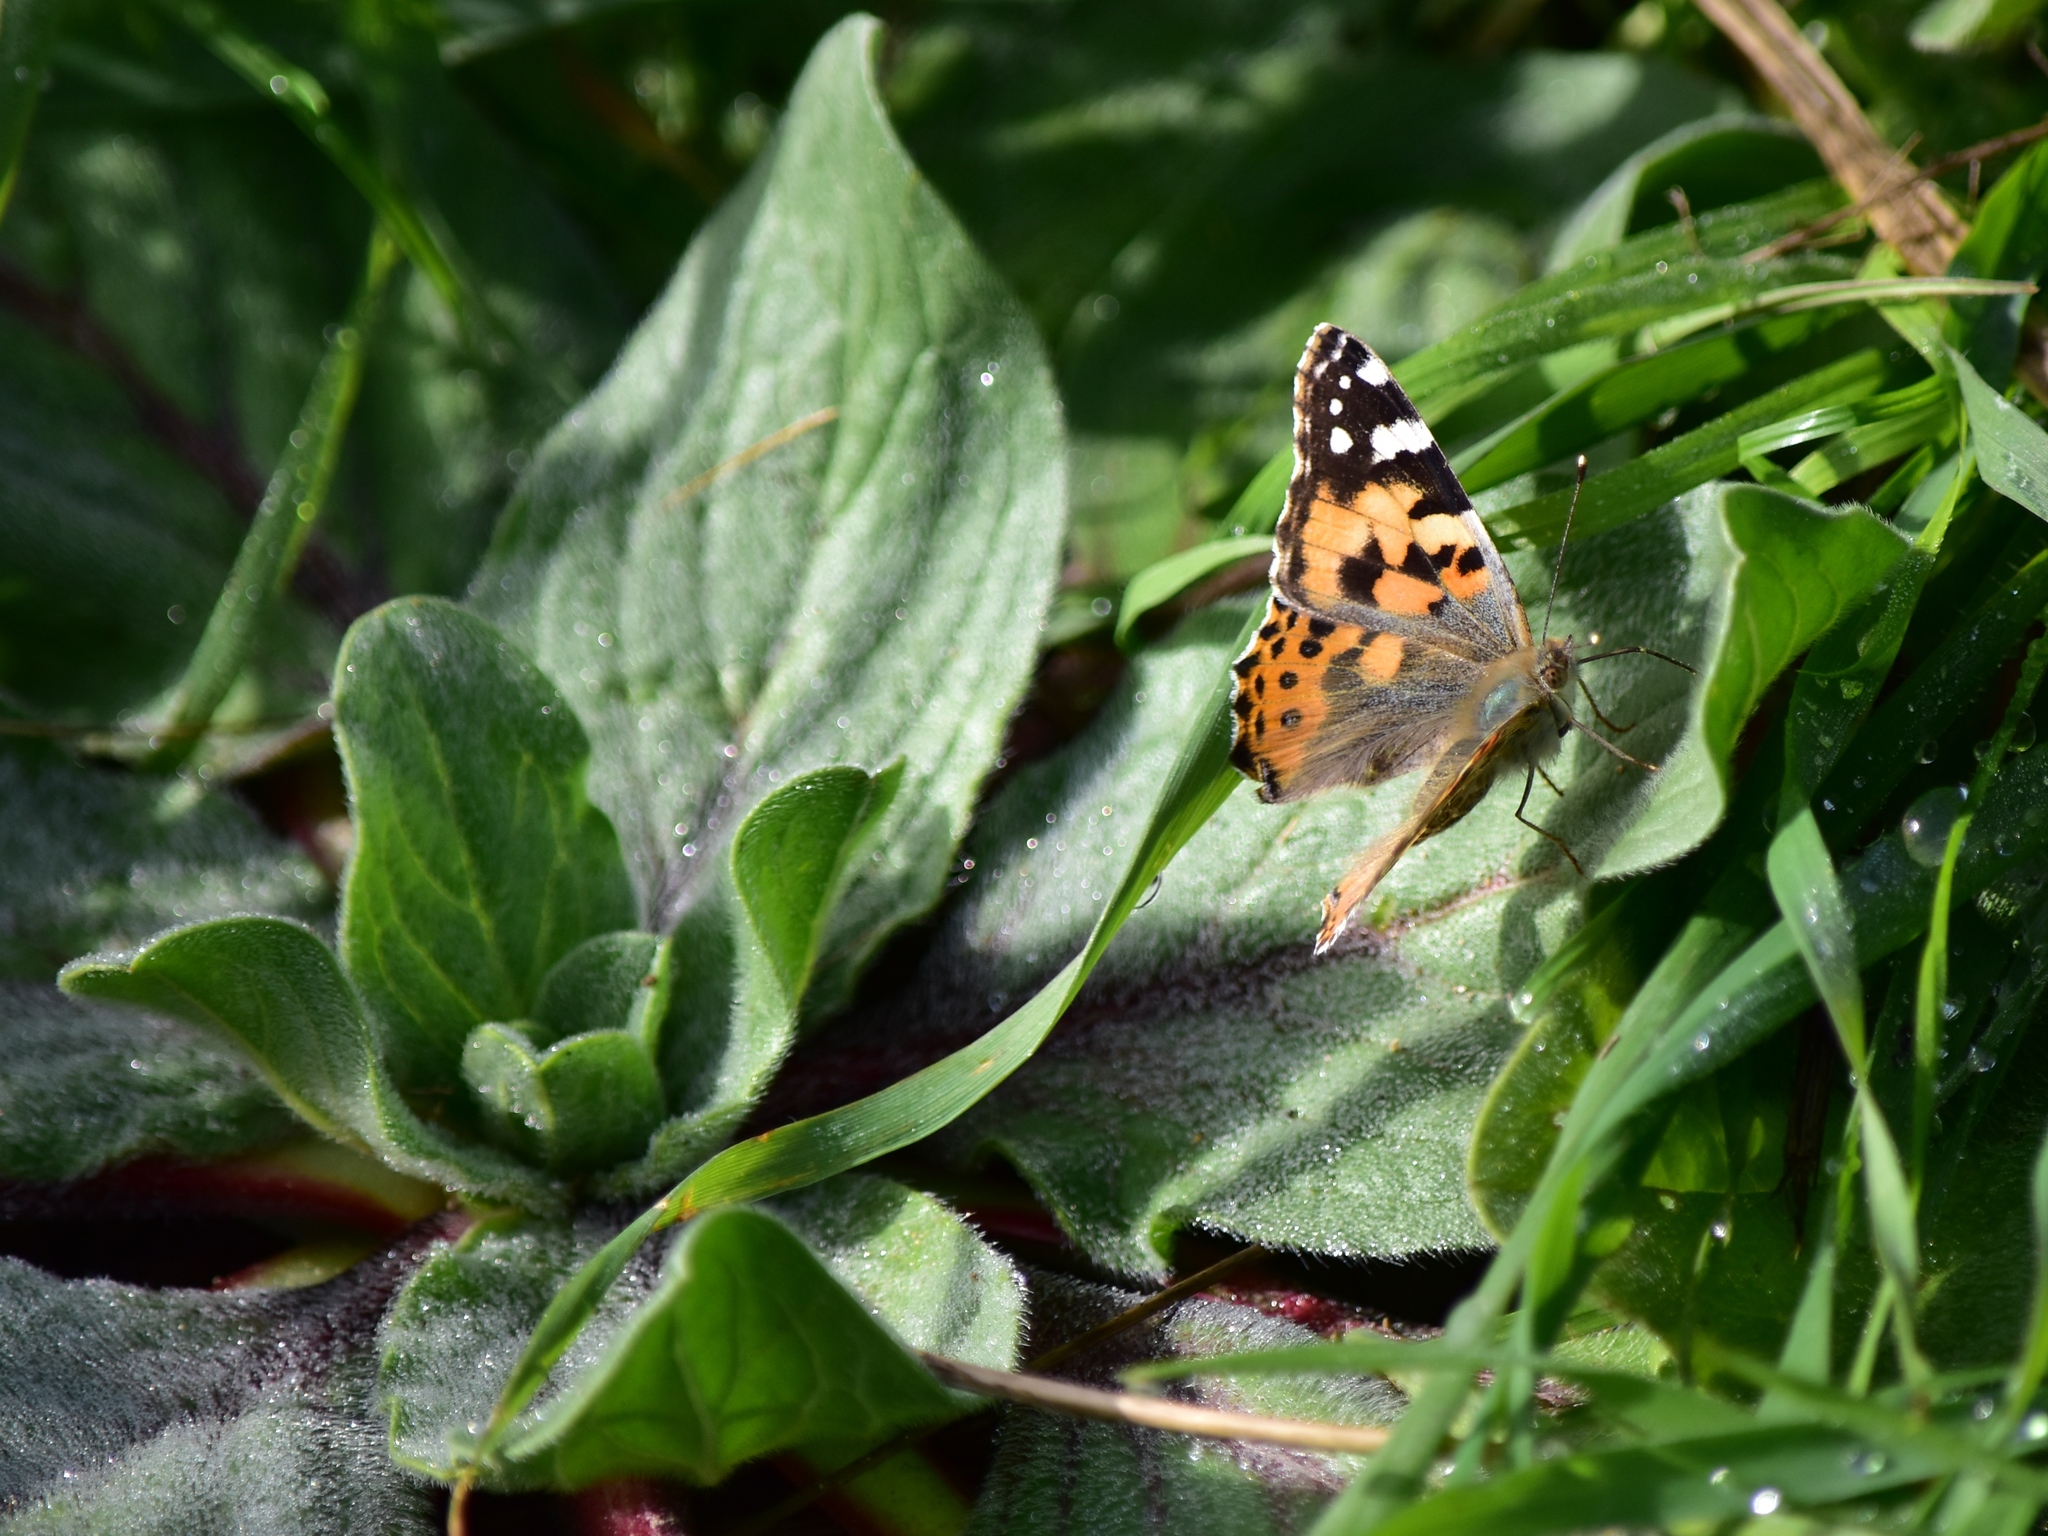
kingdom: Animalia
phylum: Arthropoda
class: Insecta
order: Lepidoptera
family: Nymphalidae
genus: Vanessa
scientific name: Vanessa cardui
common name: Painted lady
